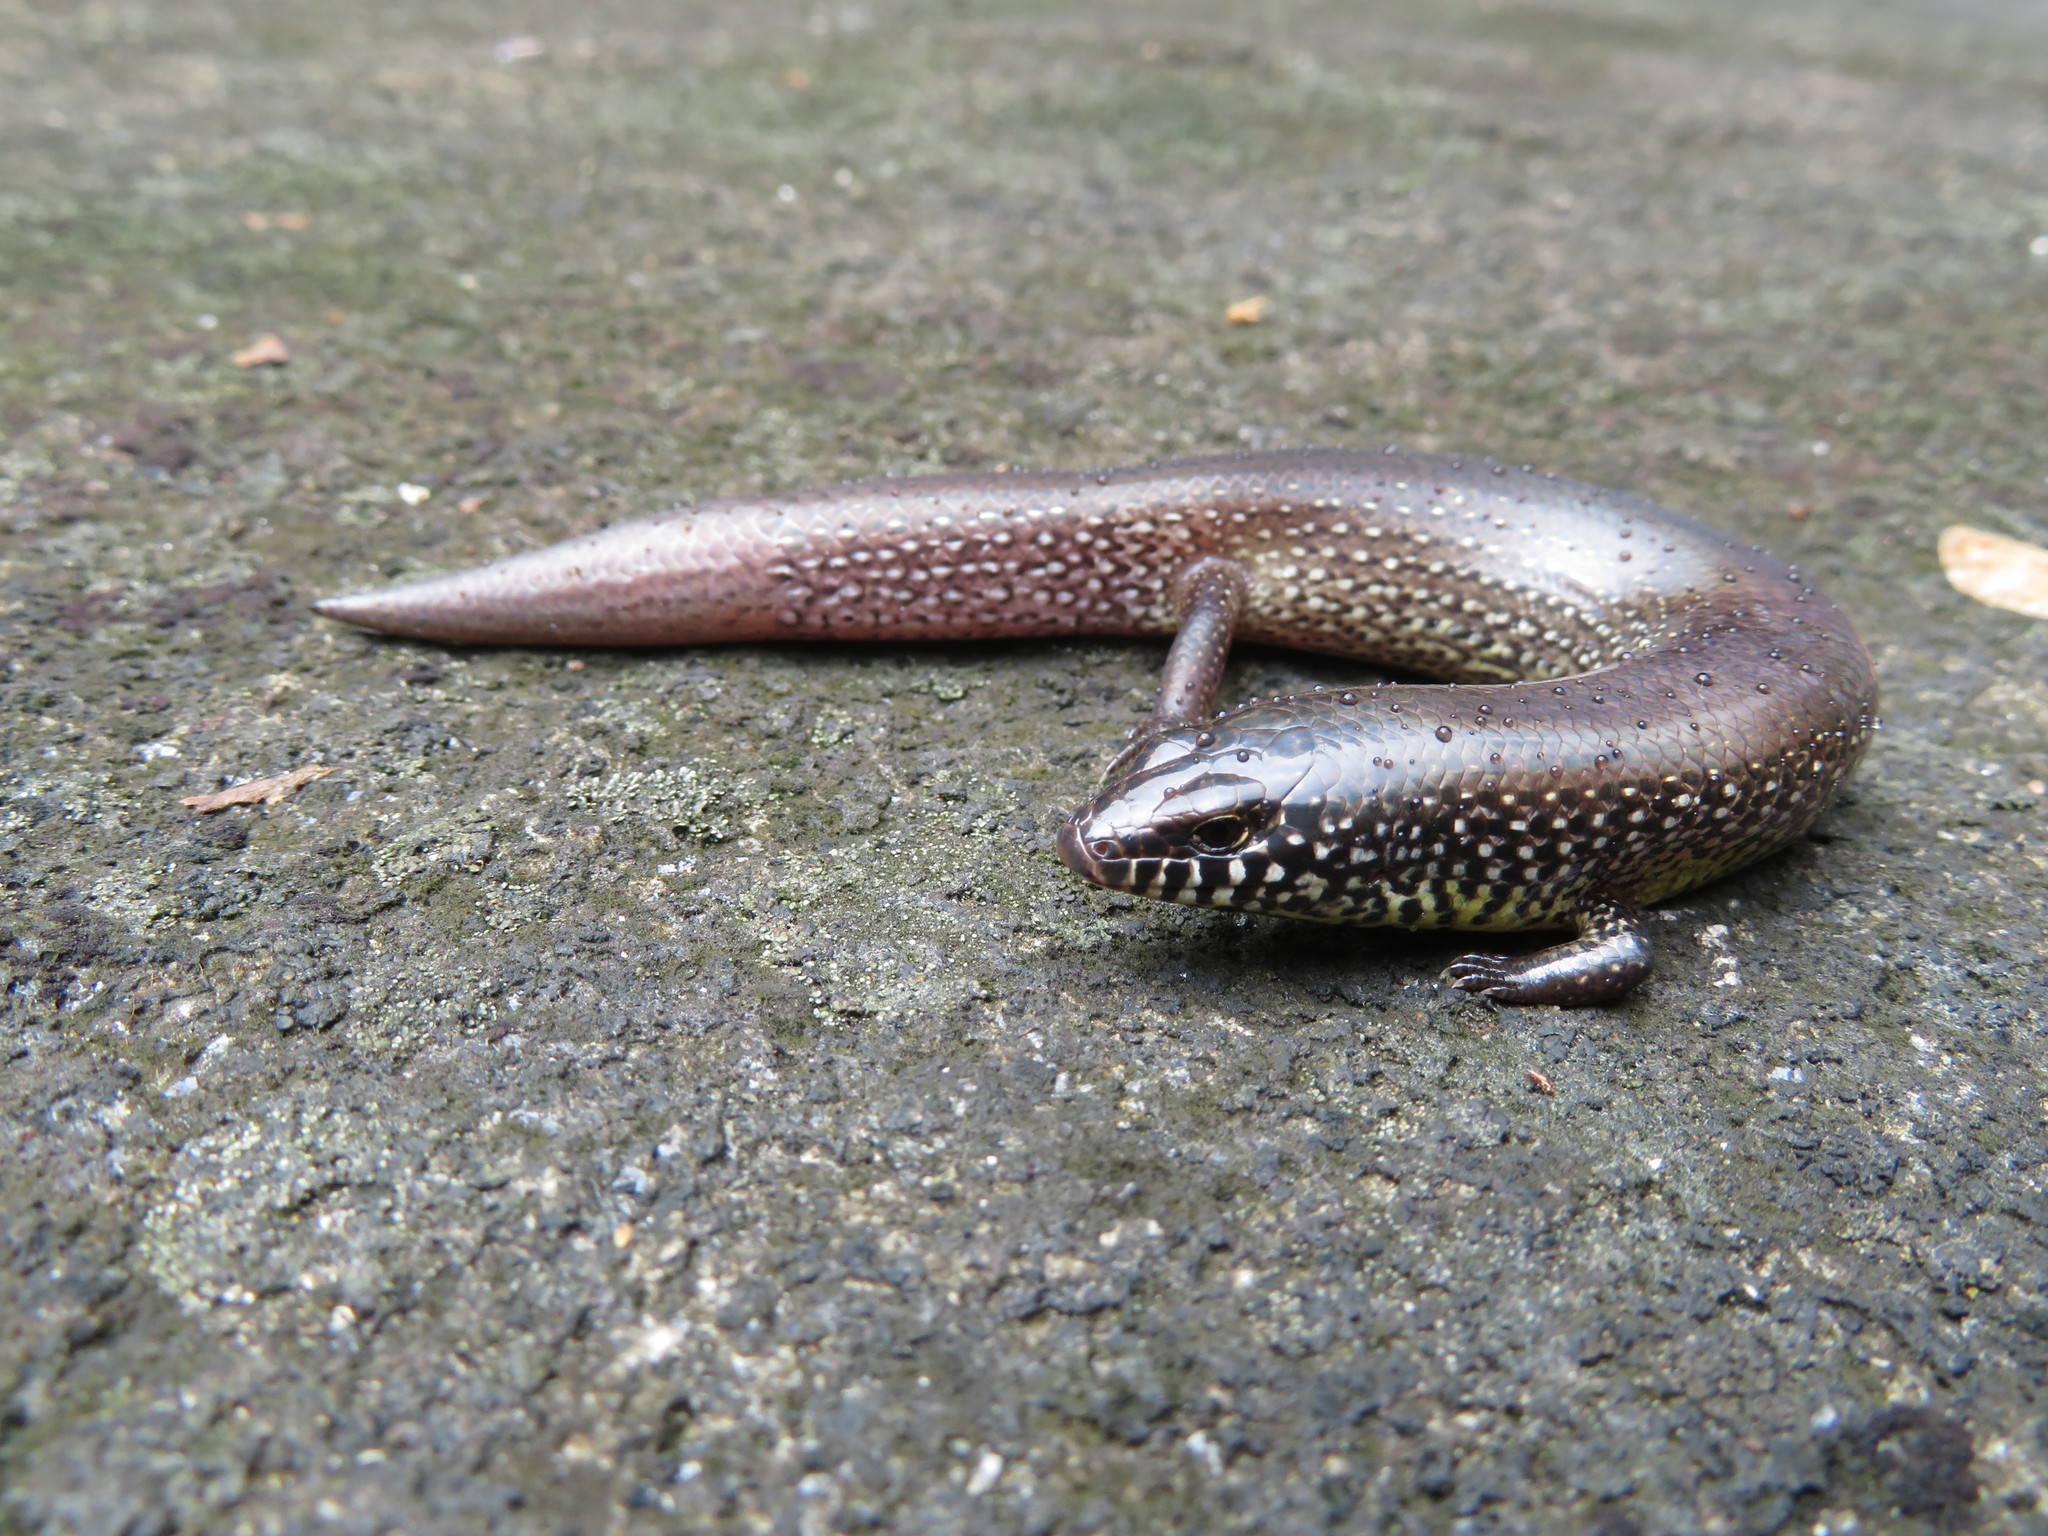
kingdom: Animalia
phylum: Chordata
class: Squamata
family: Scincidae
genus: Mochlus
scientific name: Mochlus sundevallii
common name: Peters' eyelid skink
